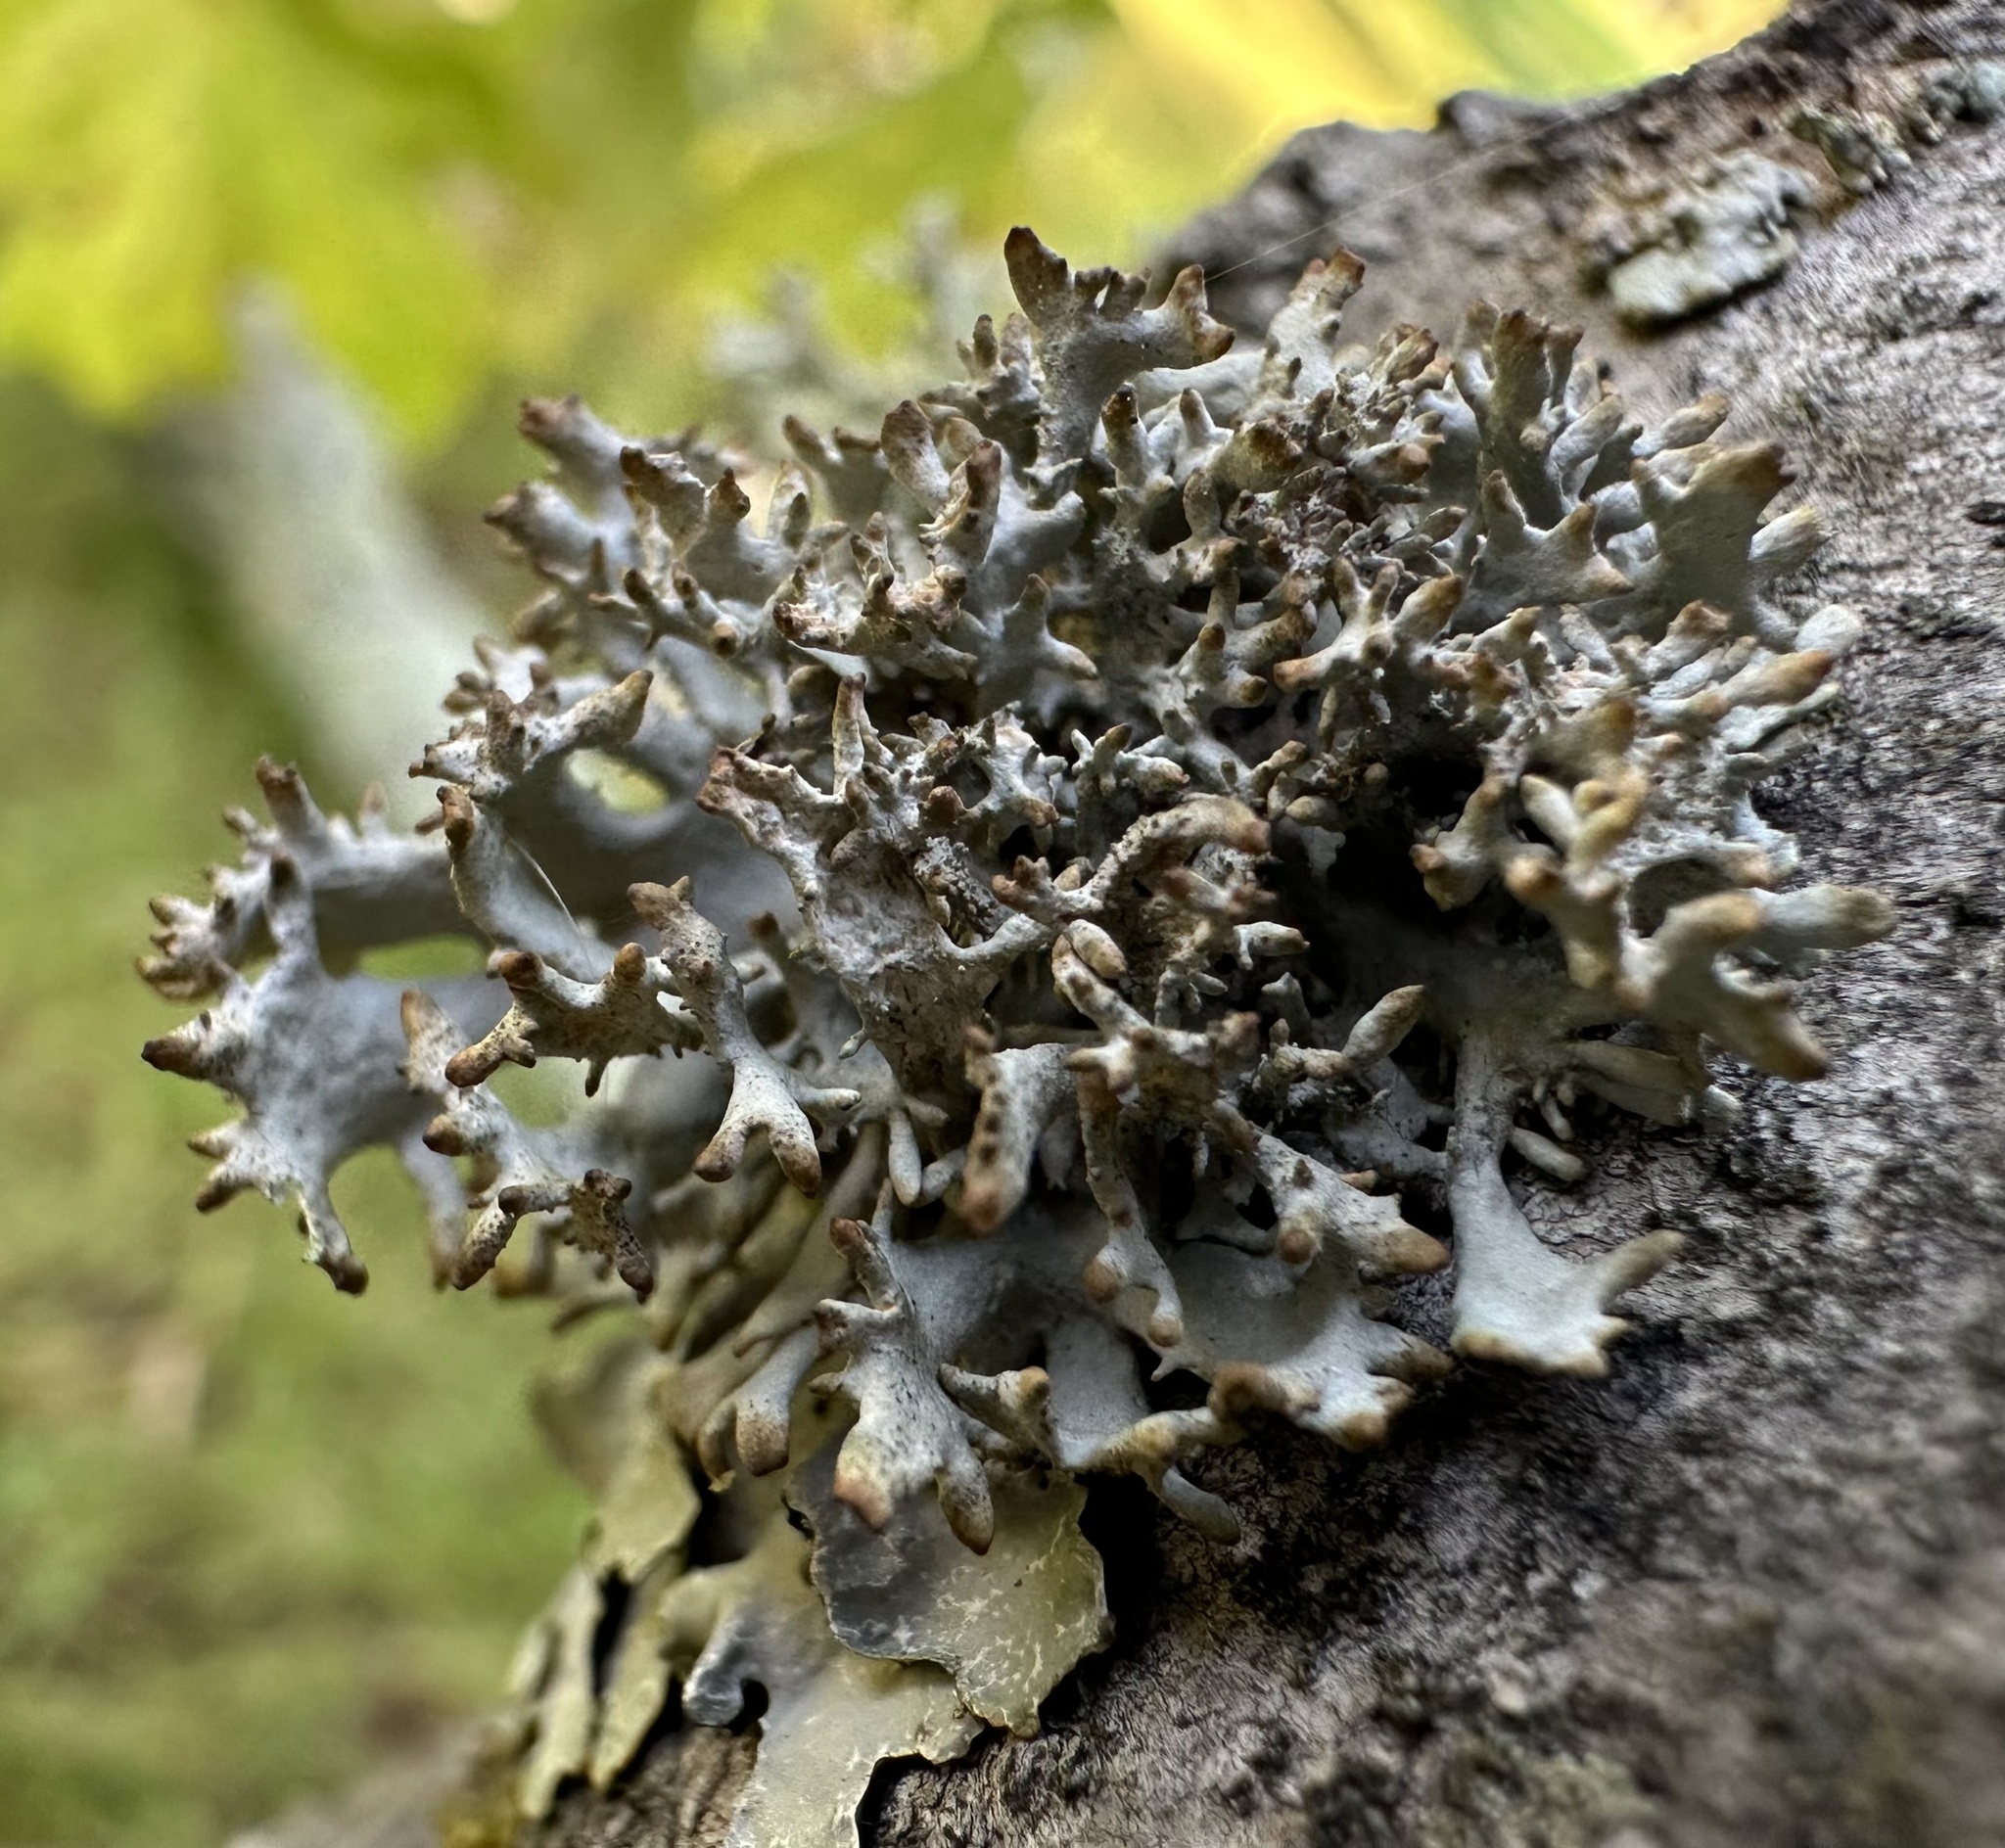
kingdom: Fungi
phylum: Ascomycota
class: Lecanoromycetes
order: Lecanorales
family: Parmeliaceae
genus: Pseudevernia
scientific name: Pseudevernia furfuracea
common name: Tree moss
